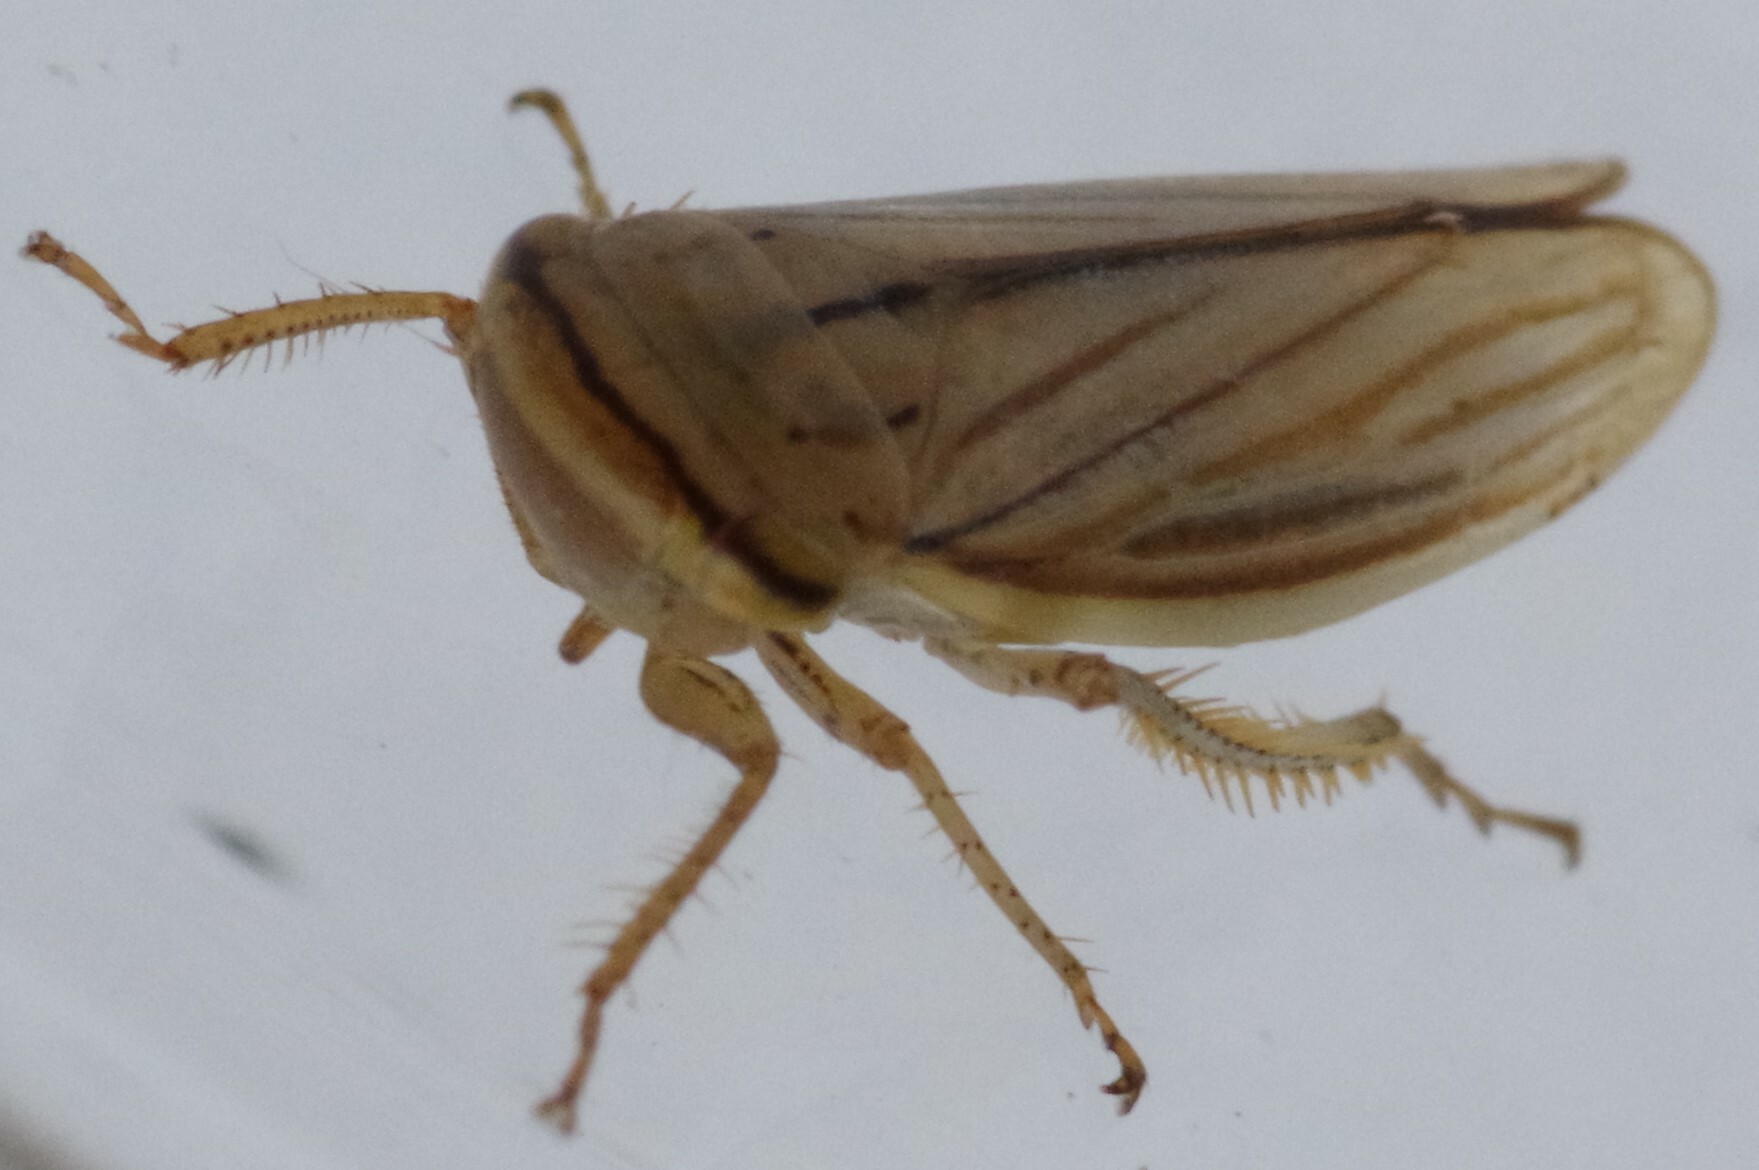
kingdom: Animalia
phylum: Arthropoda
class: Insecta
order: Hemiptera
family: Cicadellidae
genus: Athysanus
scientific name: Athysanus argentarius
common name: Silver leafhopper
